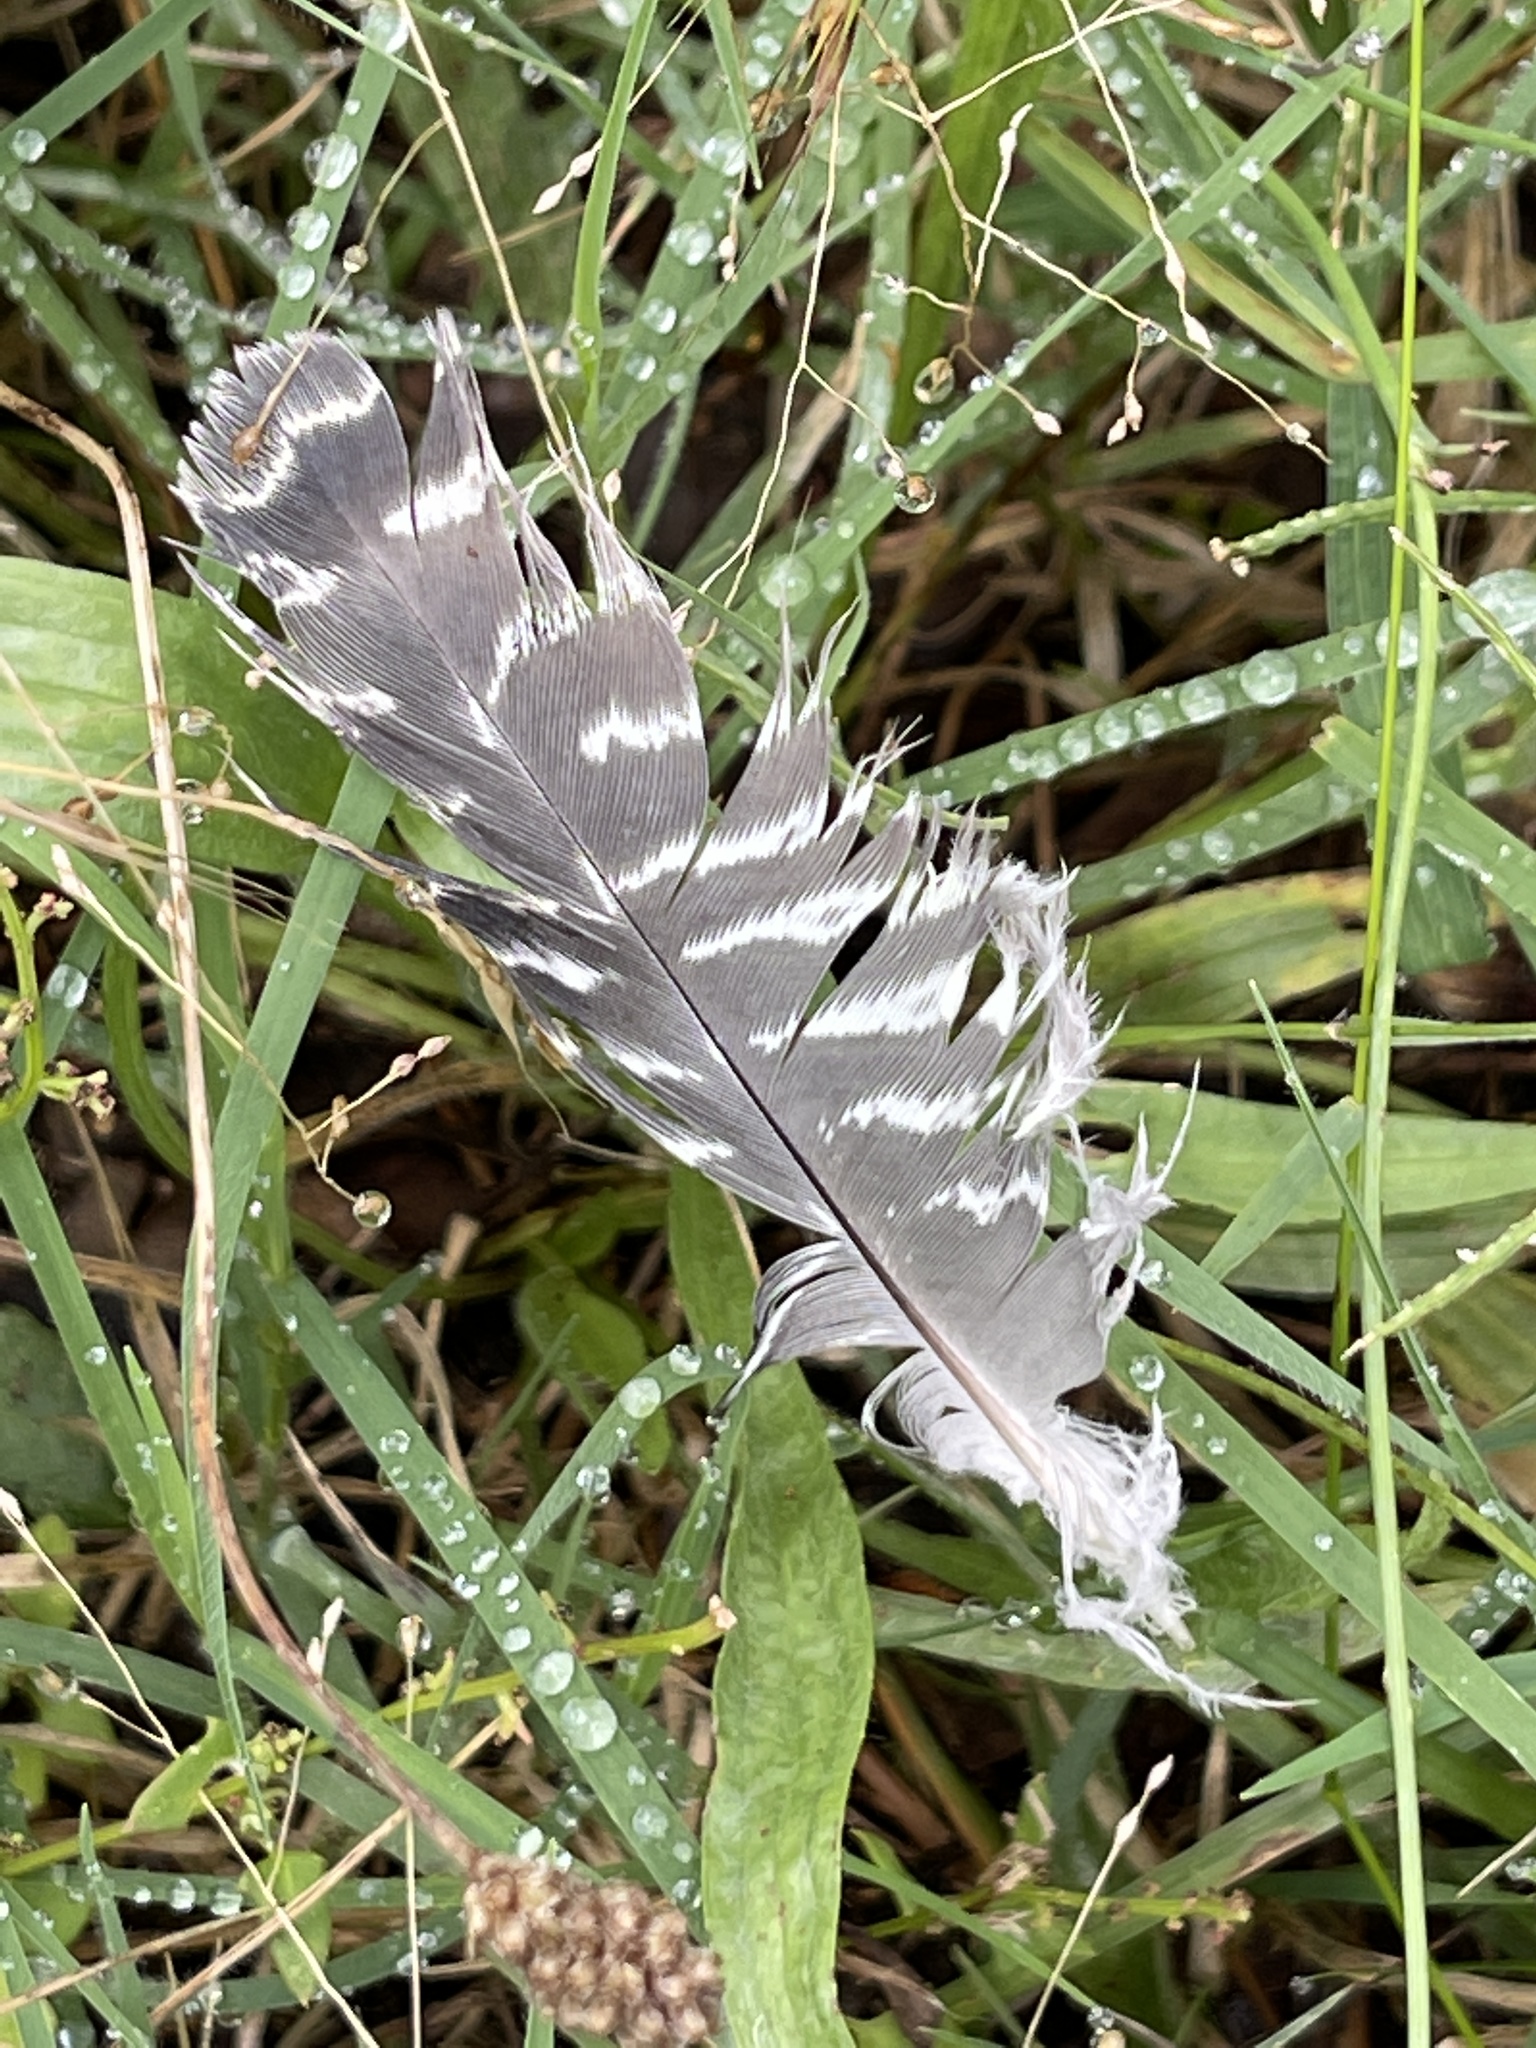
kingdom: Animalia
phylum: Chordata
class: Aves
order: Caprimulgiformes
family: Podargidae
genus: Podargus
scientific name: Podargus strigoides
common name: Tawny frogmouth
